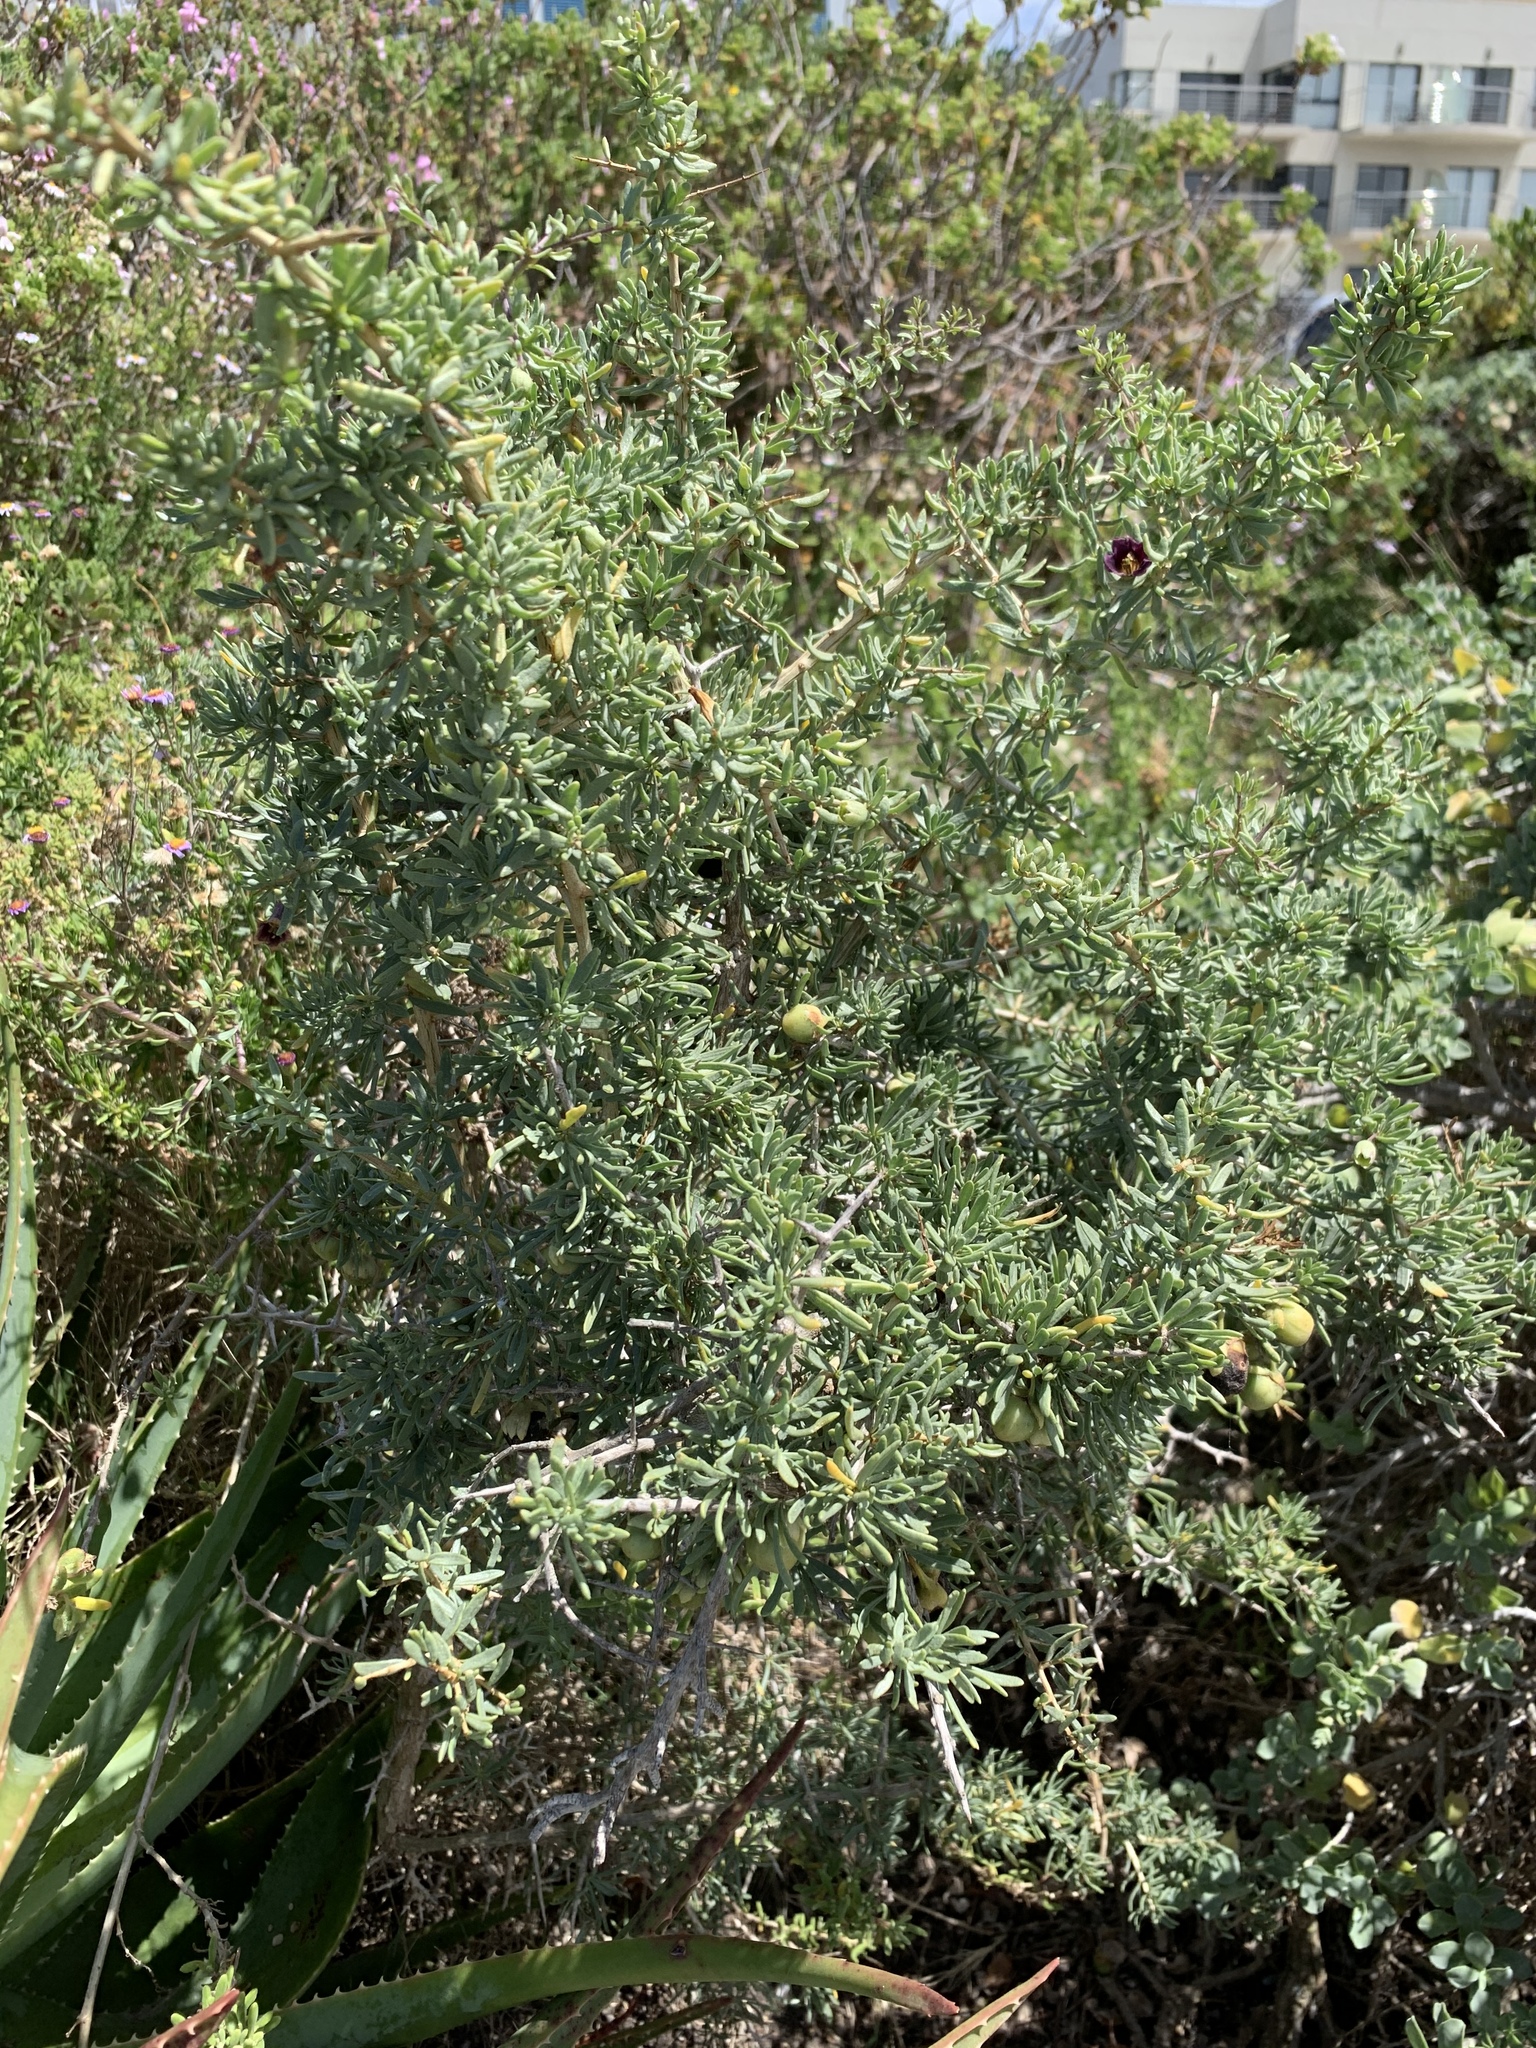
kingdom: Plantae
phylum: Tracheophyta
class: Magnoliopsida
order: Solanales
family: Solanaceae
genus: Lycium
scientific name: Lycium afrum
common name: Kaffir boxthorn
